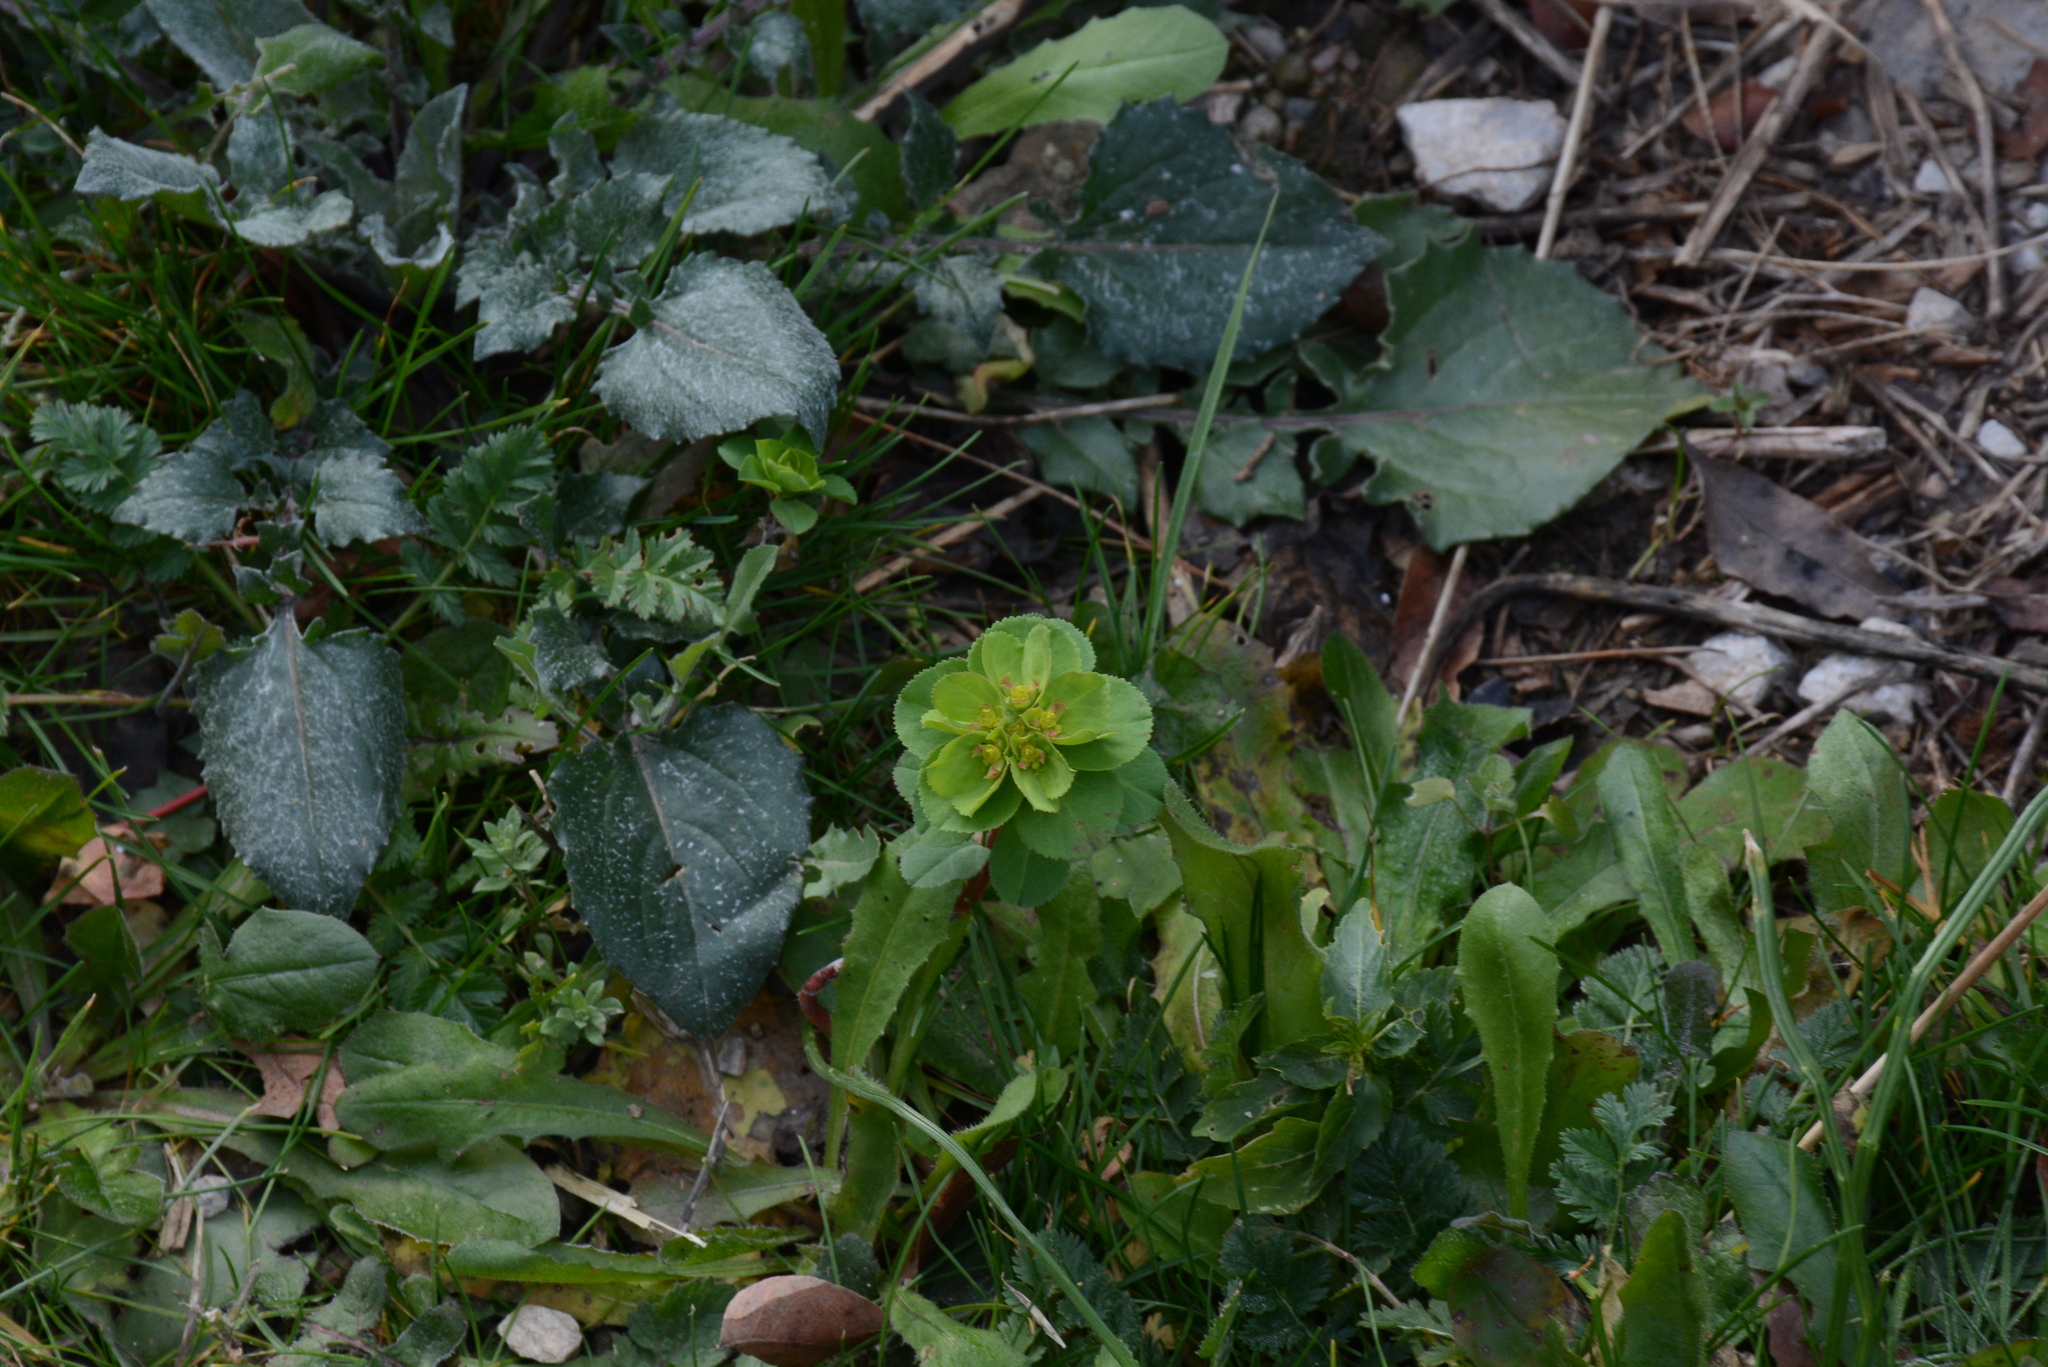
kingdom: Plantae
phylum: Tracheophyta
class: Magnoliopsida
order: Malpighiales
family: Euphorbiaceae
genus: Euphorbia
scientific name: Euphorbia helioscopia
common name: Sun spurge
